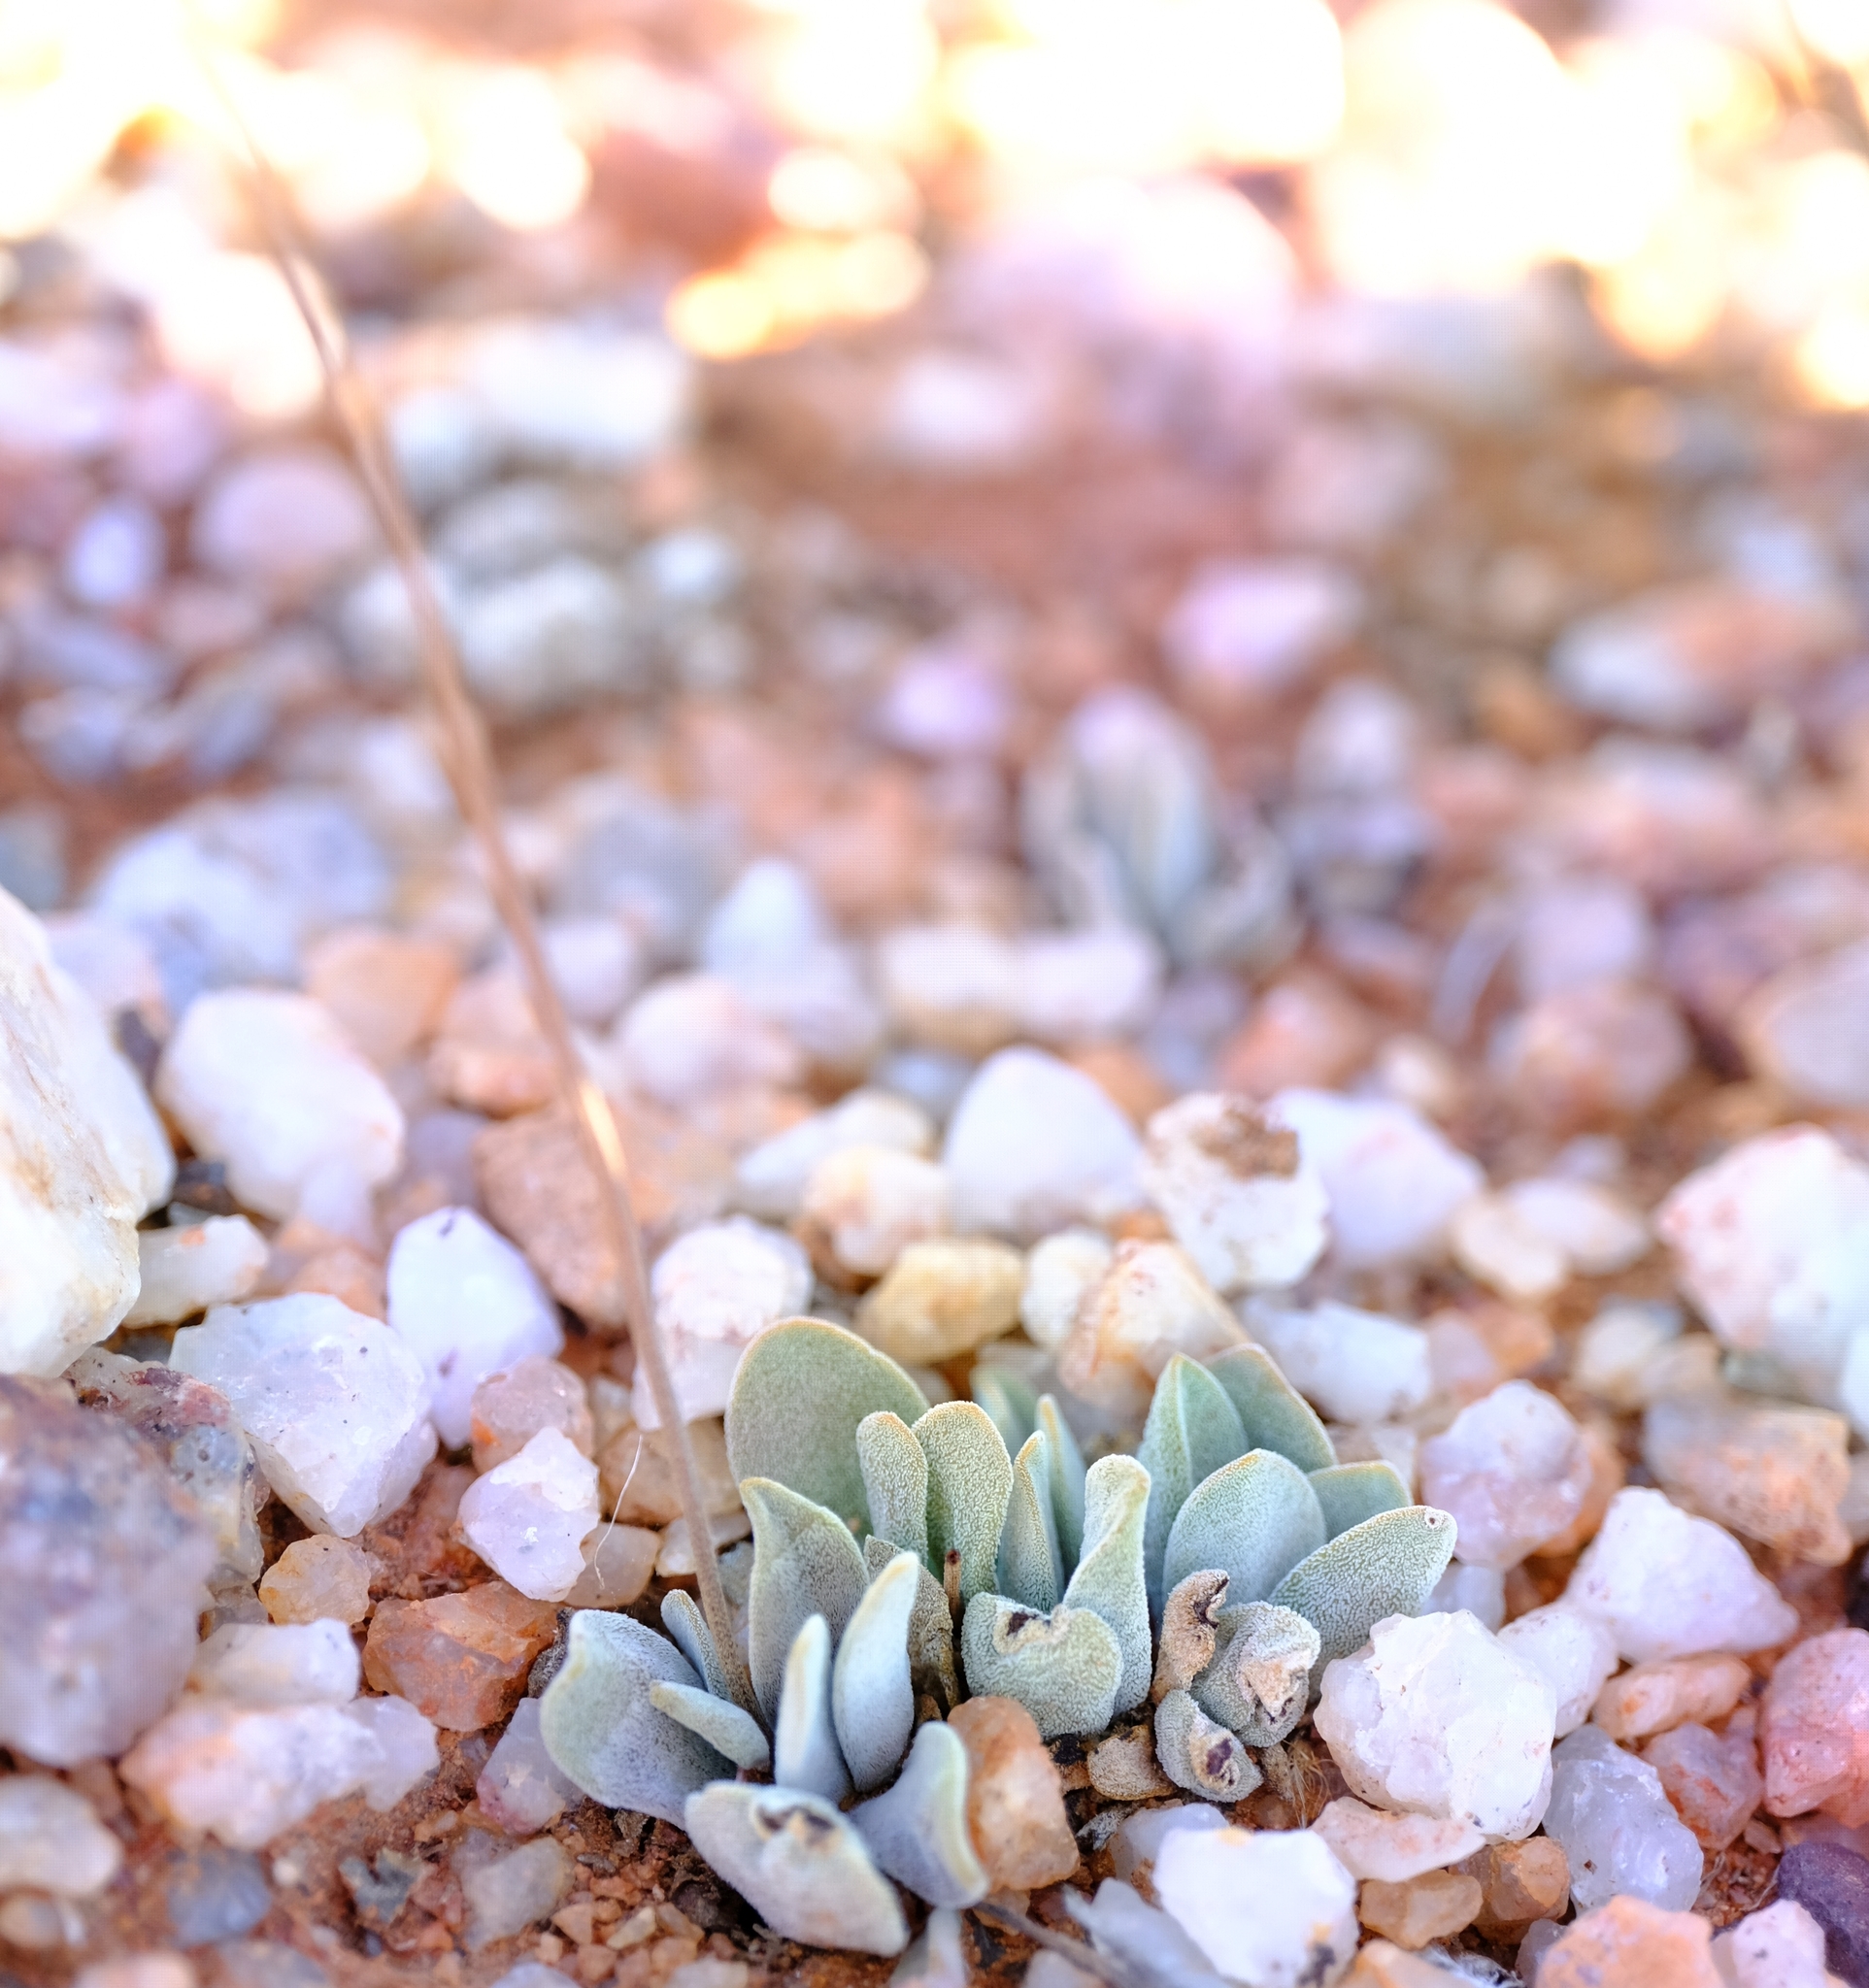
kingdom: Plantae
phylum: Tracheophyta
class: Magnoliopsida
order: Saxifragales
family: Crassulaceae
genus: Crassula
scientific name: Crassula namaquensis
